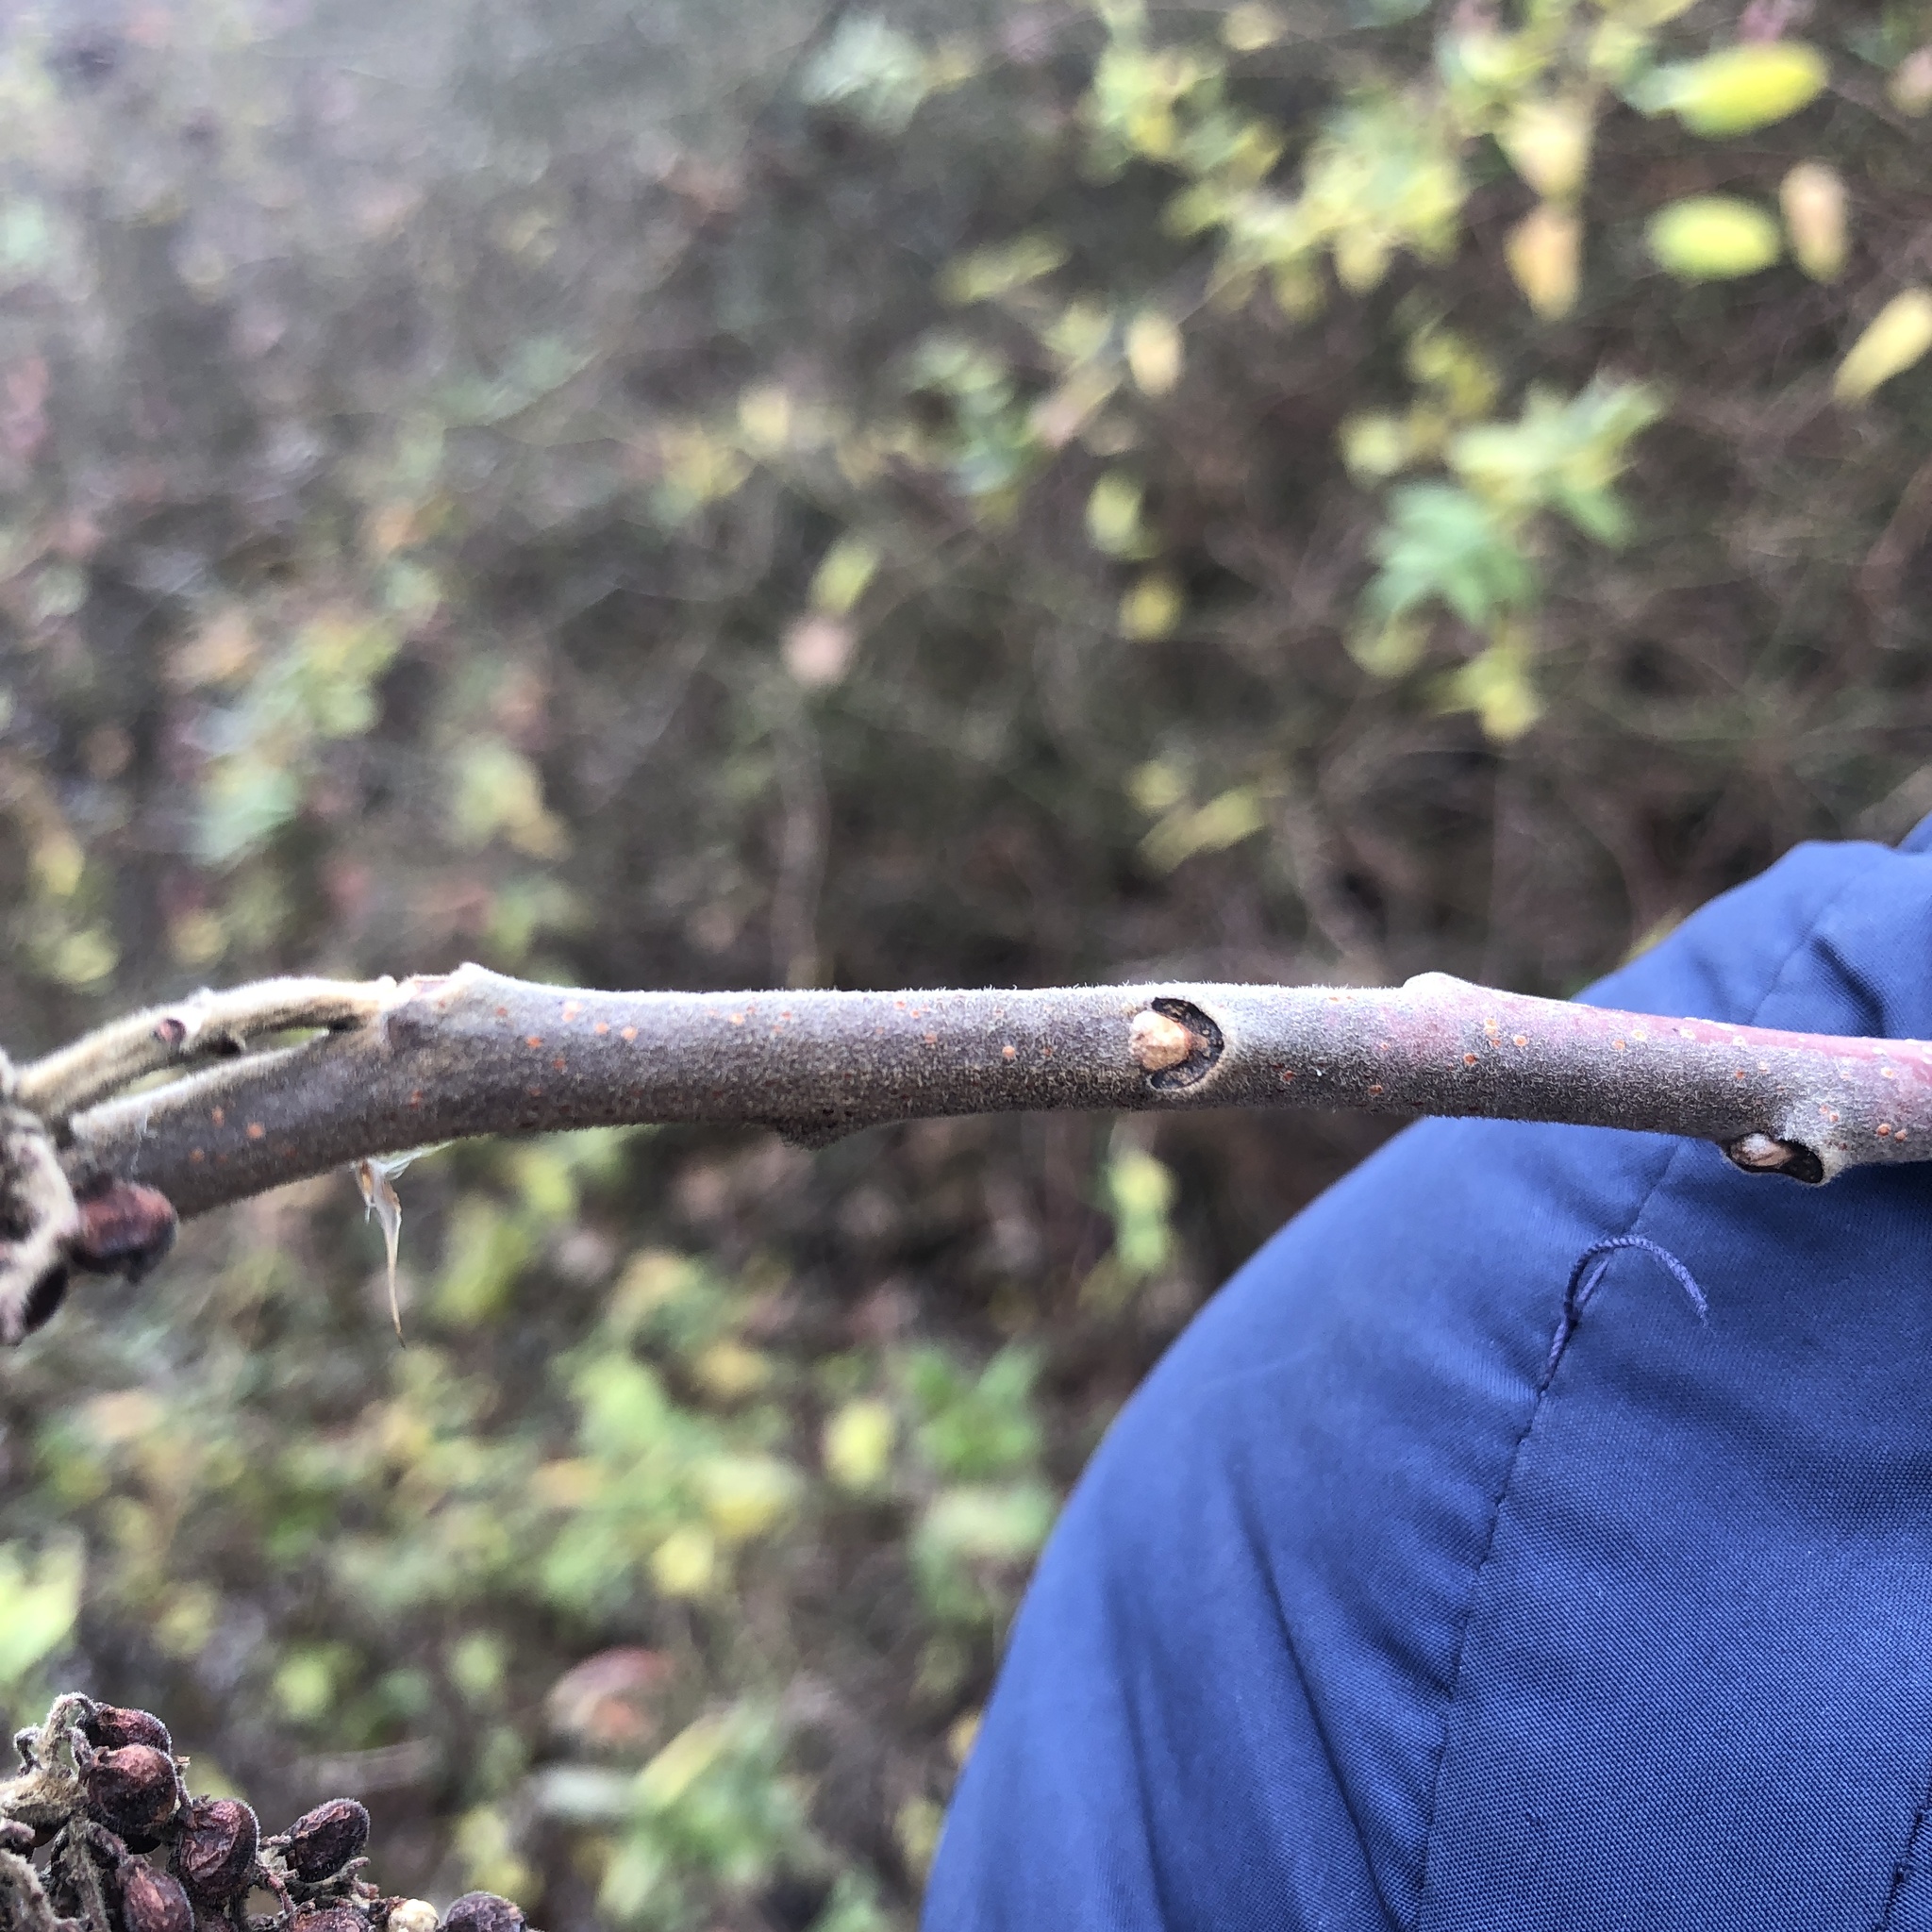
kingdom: Plantae
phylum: Tracheophyta
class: Magnoliopsida
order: Sapindales
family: Anacardiaceae
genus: Rhus
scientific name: Rhus copallina
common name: Shining sumac
